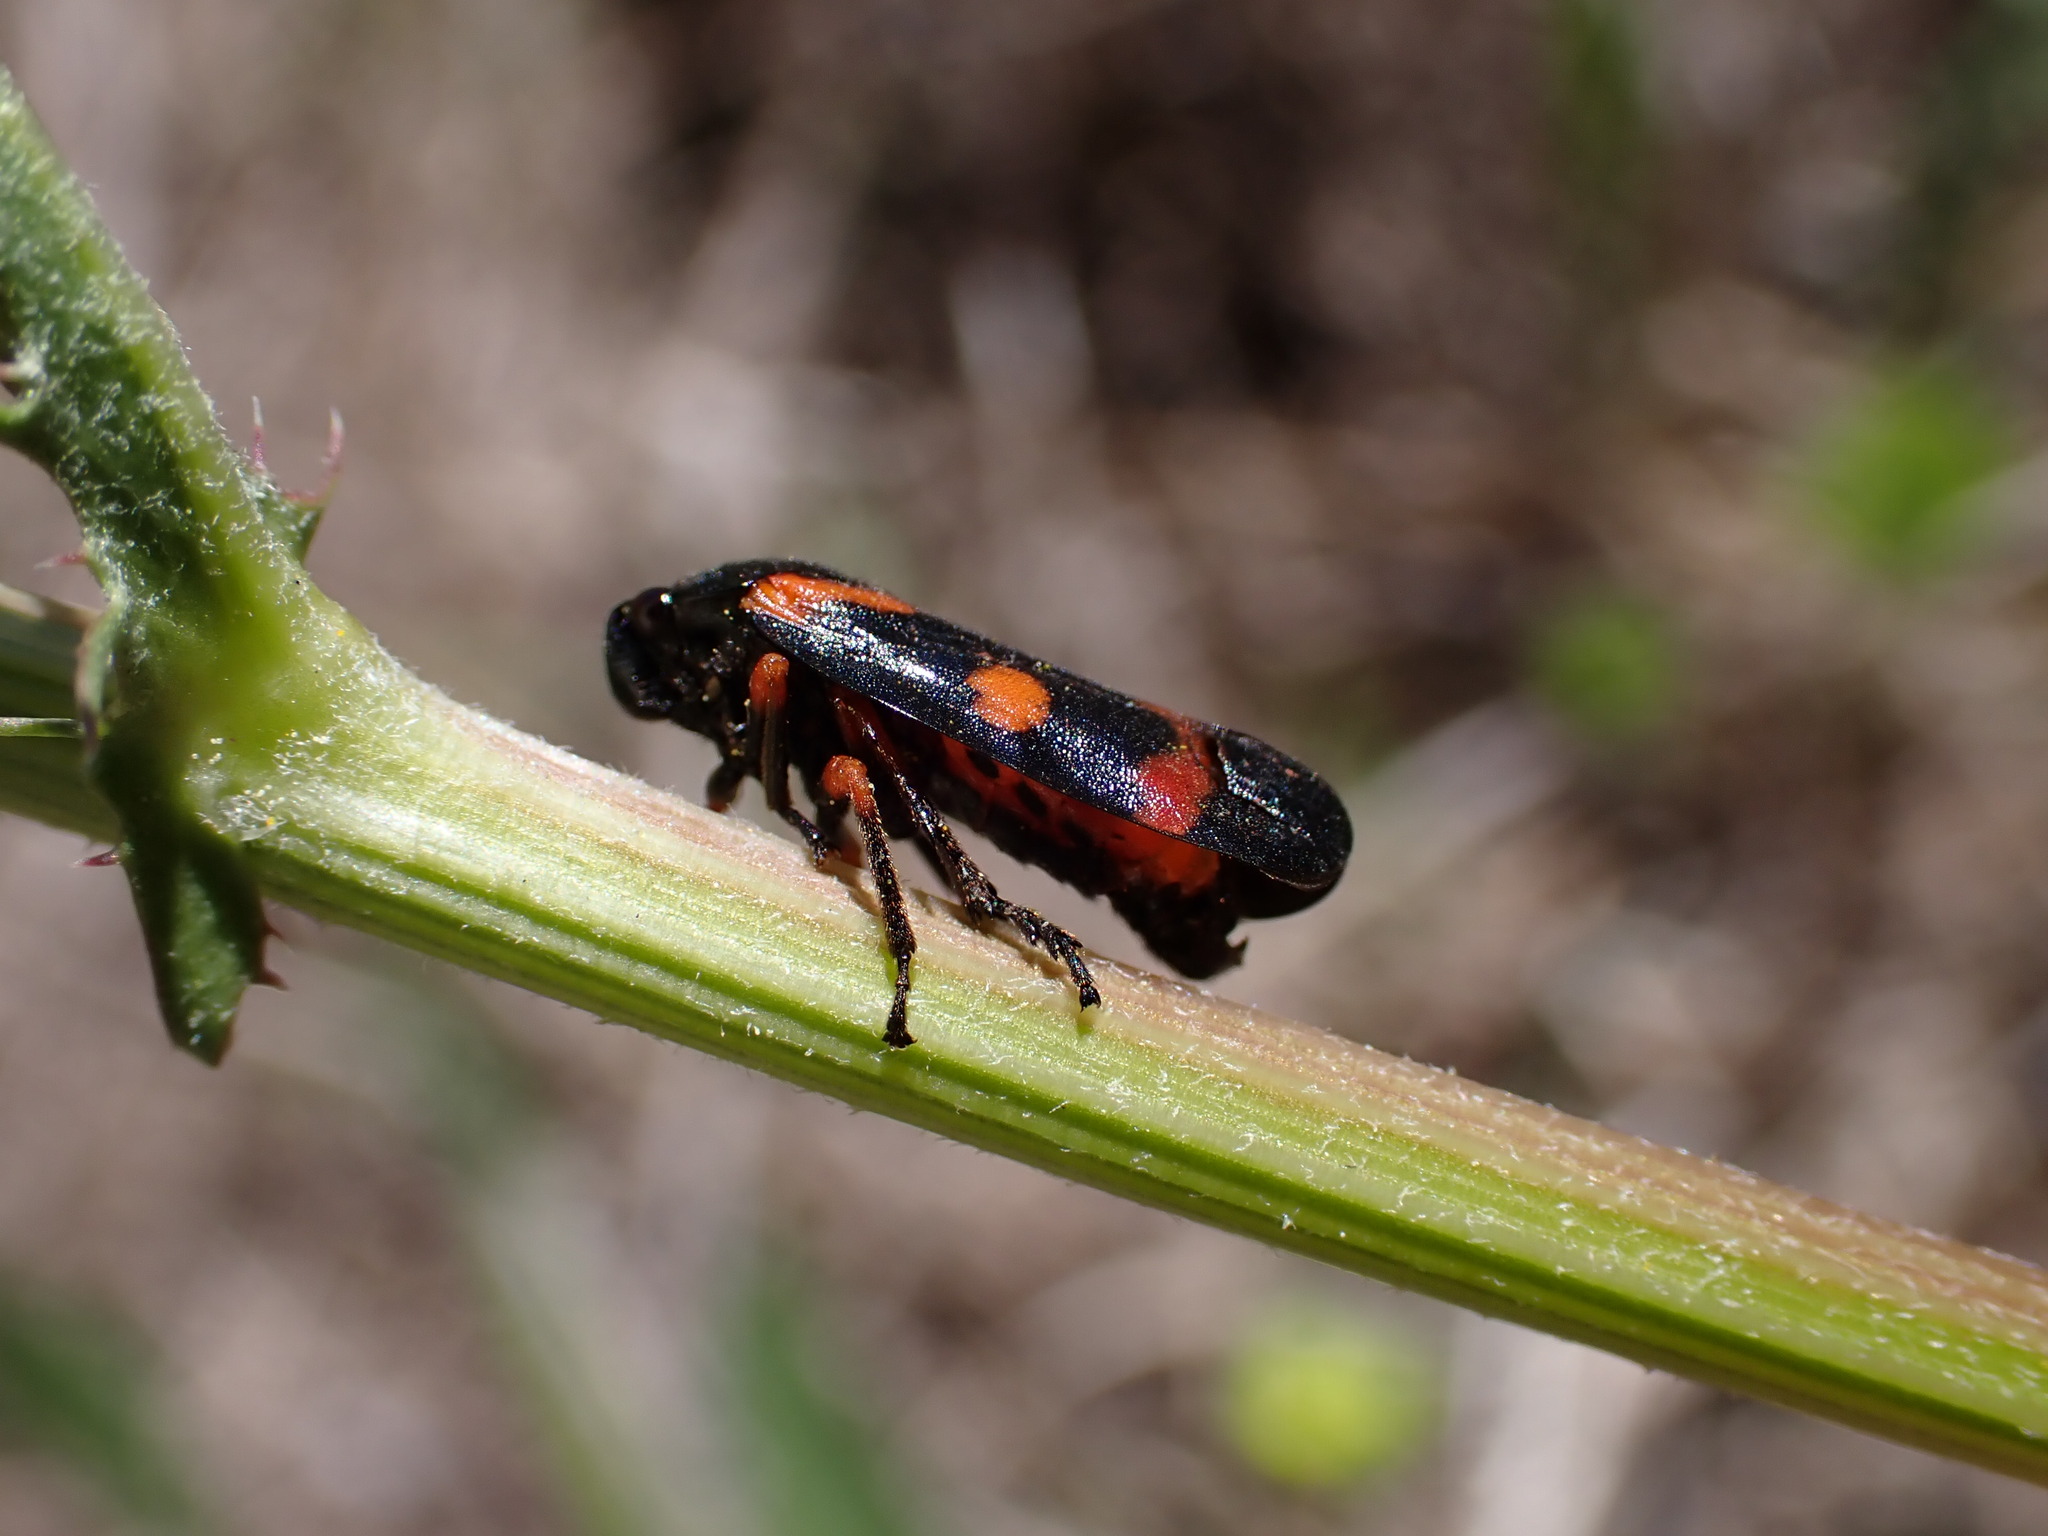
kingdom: Animalia
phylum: Arthropoda
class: Insecta
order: Hemiptera
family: Cercopidae
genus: Cercopis
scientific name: Cercopis intermedia
